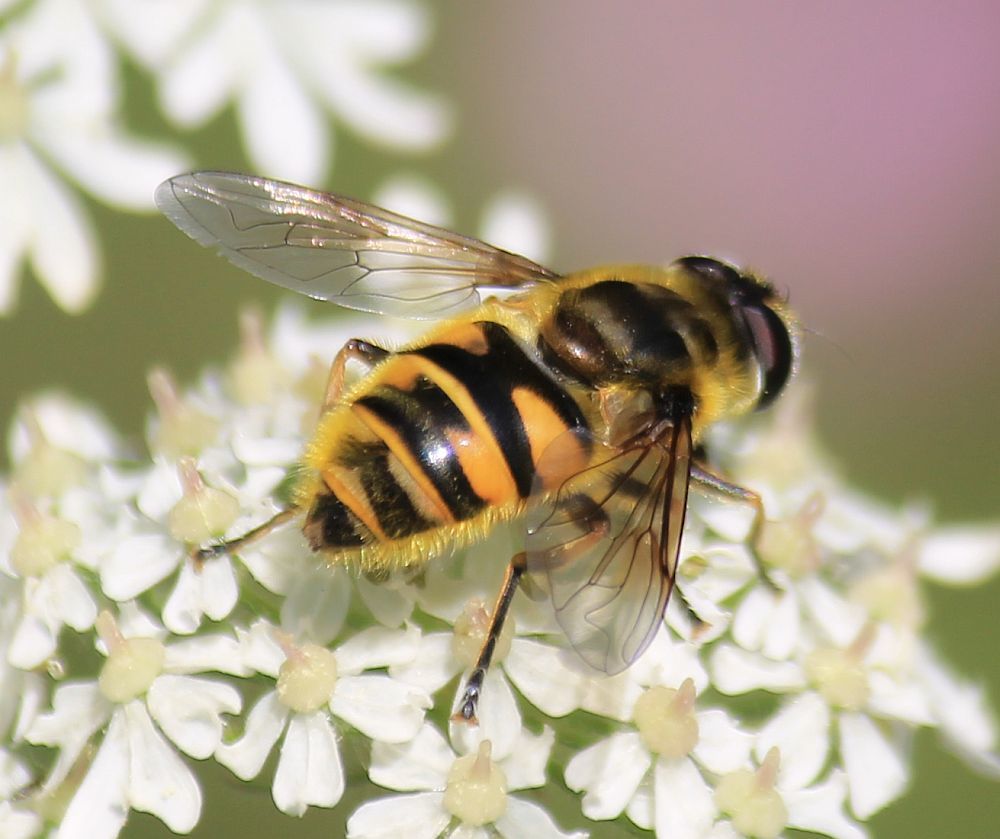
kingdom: Animalia
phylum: Arthropoda
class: Insecta
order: Diptera
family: Syrphidae
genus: Myathropa
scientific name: Myathropa florea
